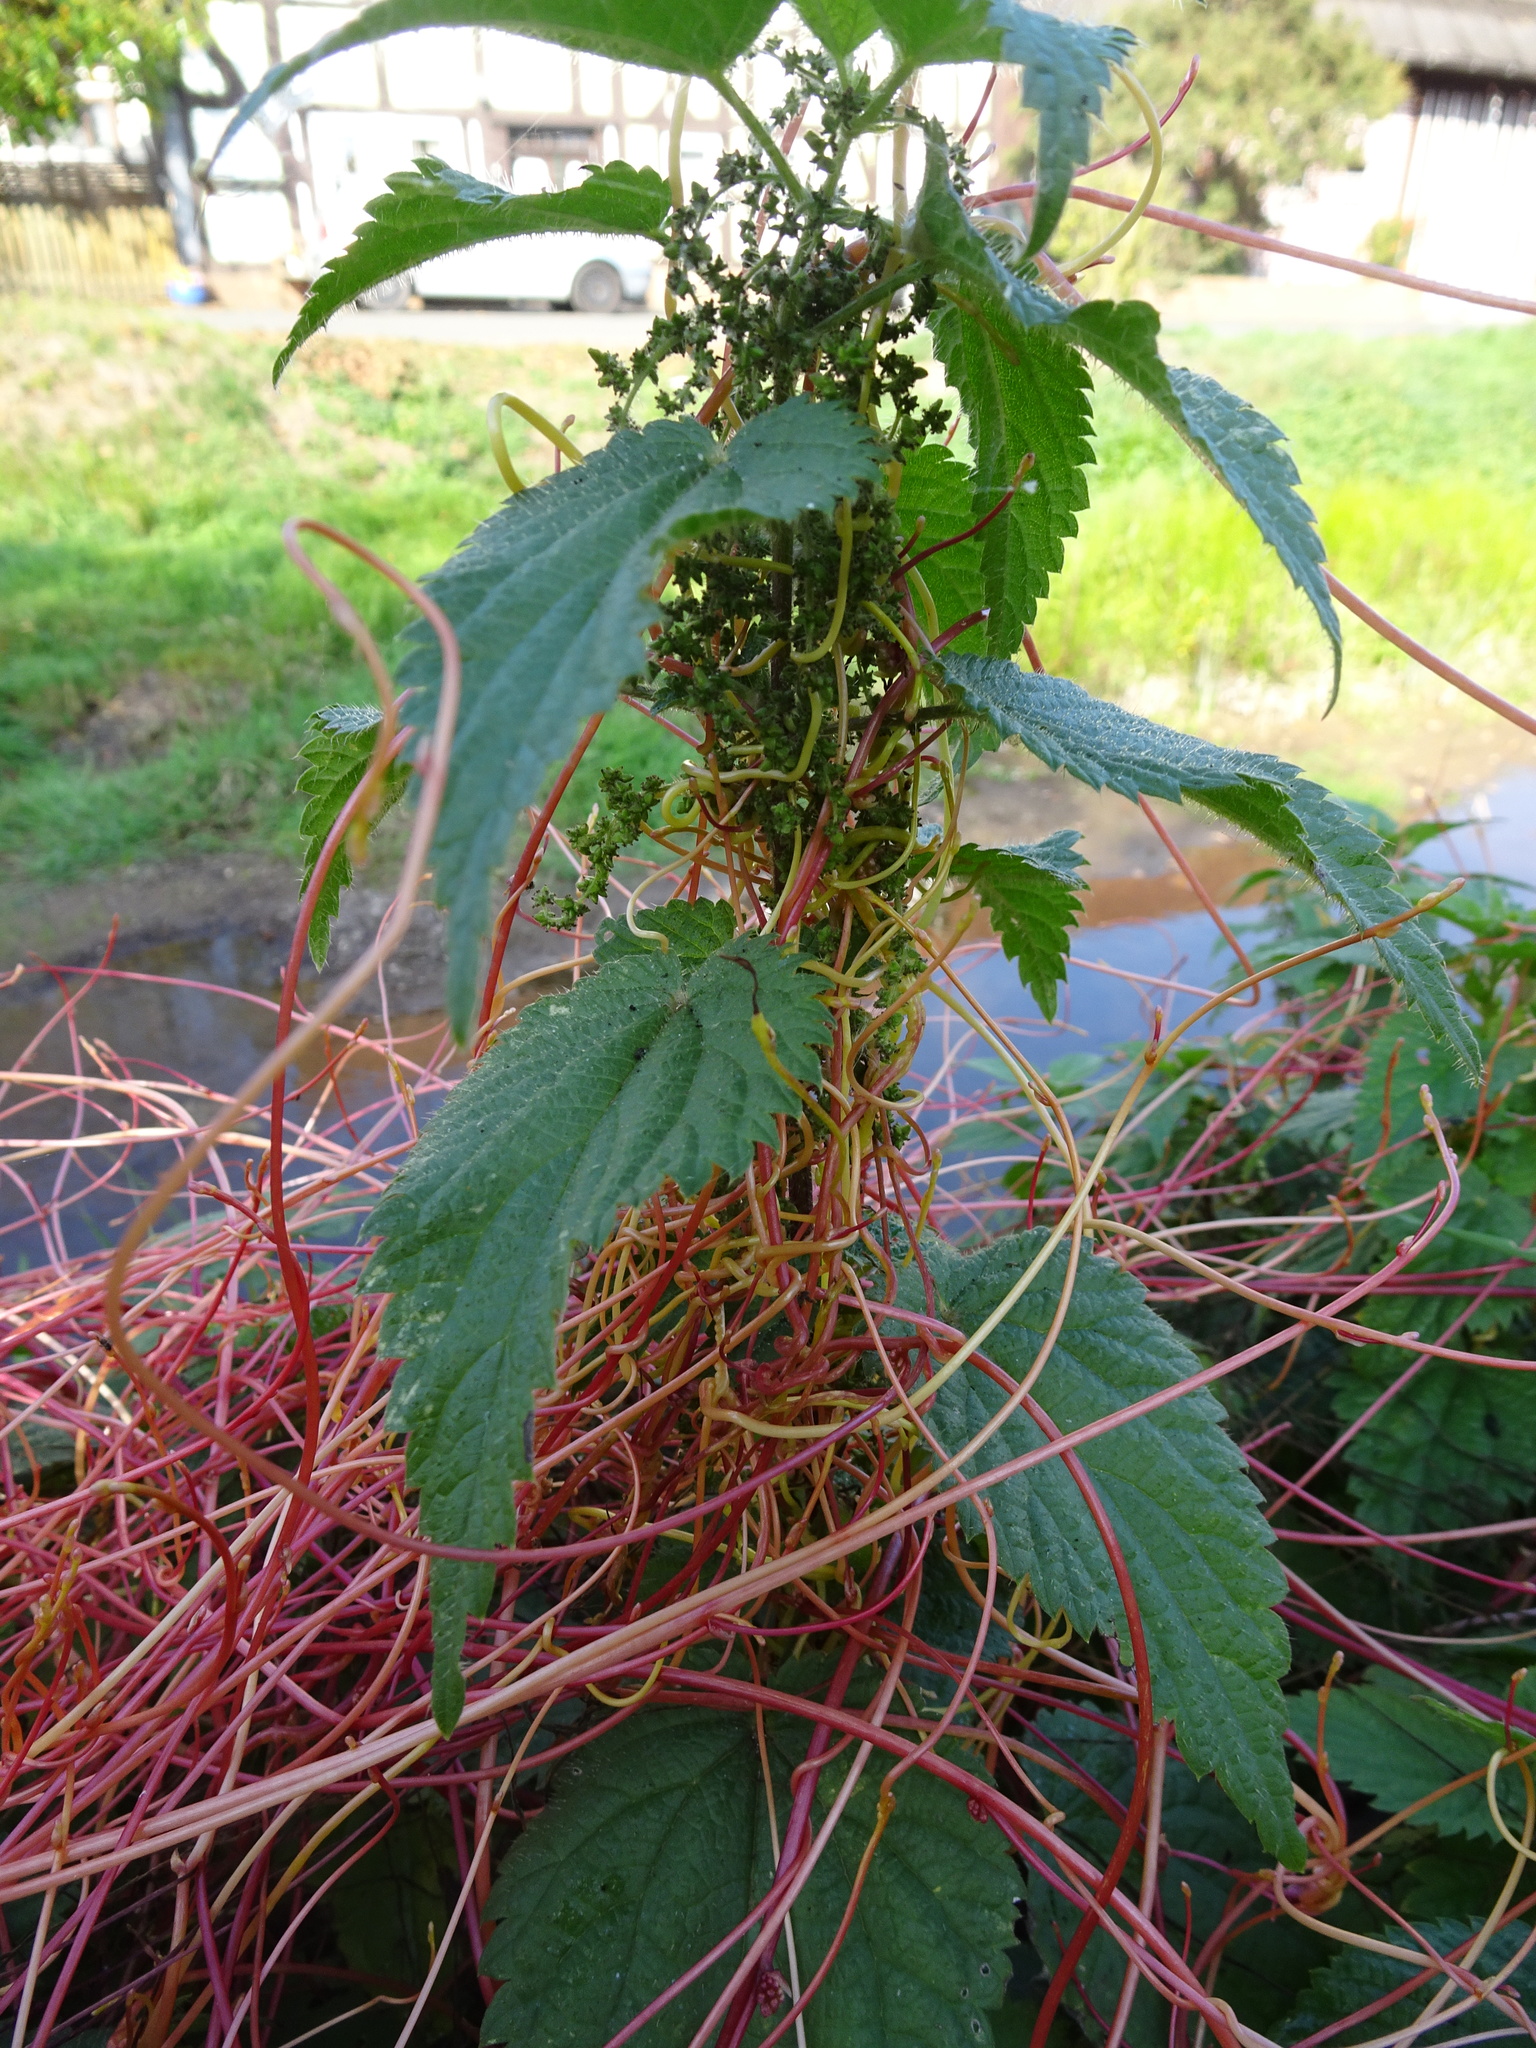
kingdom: Plantae
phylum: Tracheophyta
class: Magnoliopsida
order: Solanales
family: Convolvulaceae
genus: Cuscuta
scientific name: Cuscuta europaea
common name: Greater dodder
